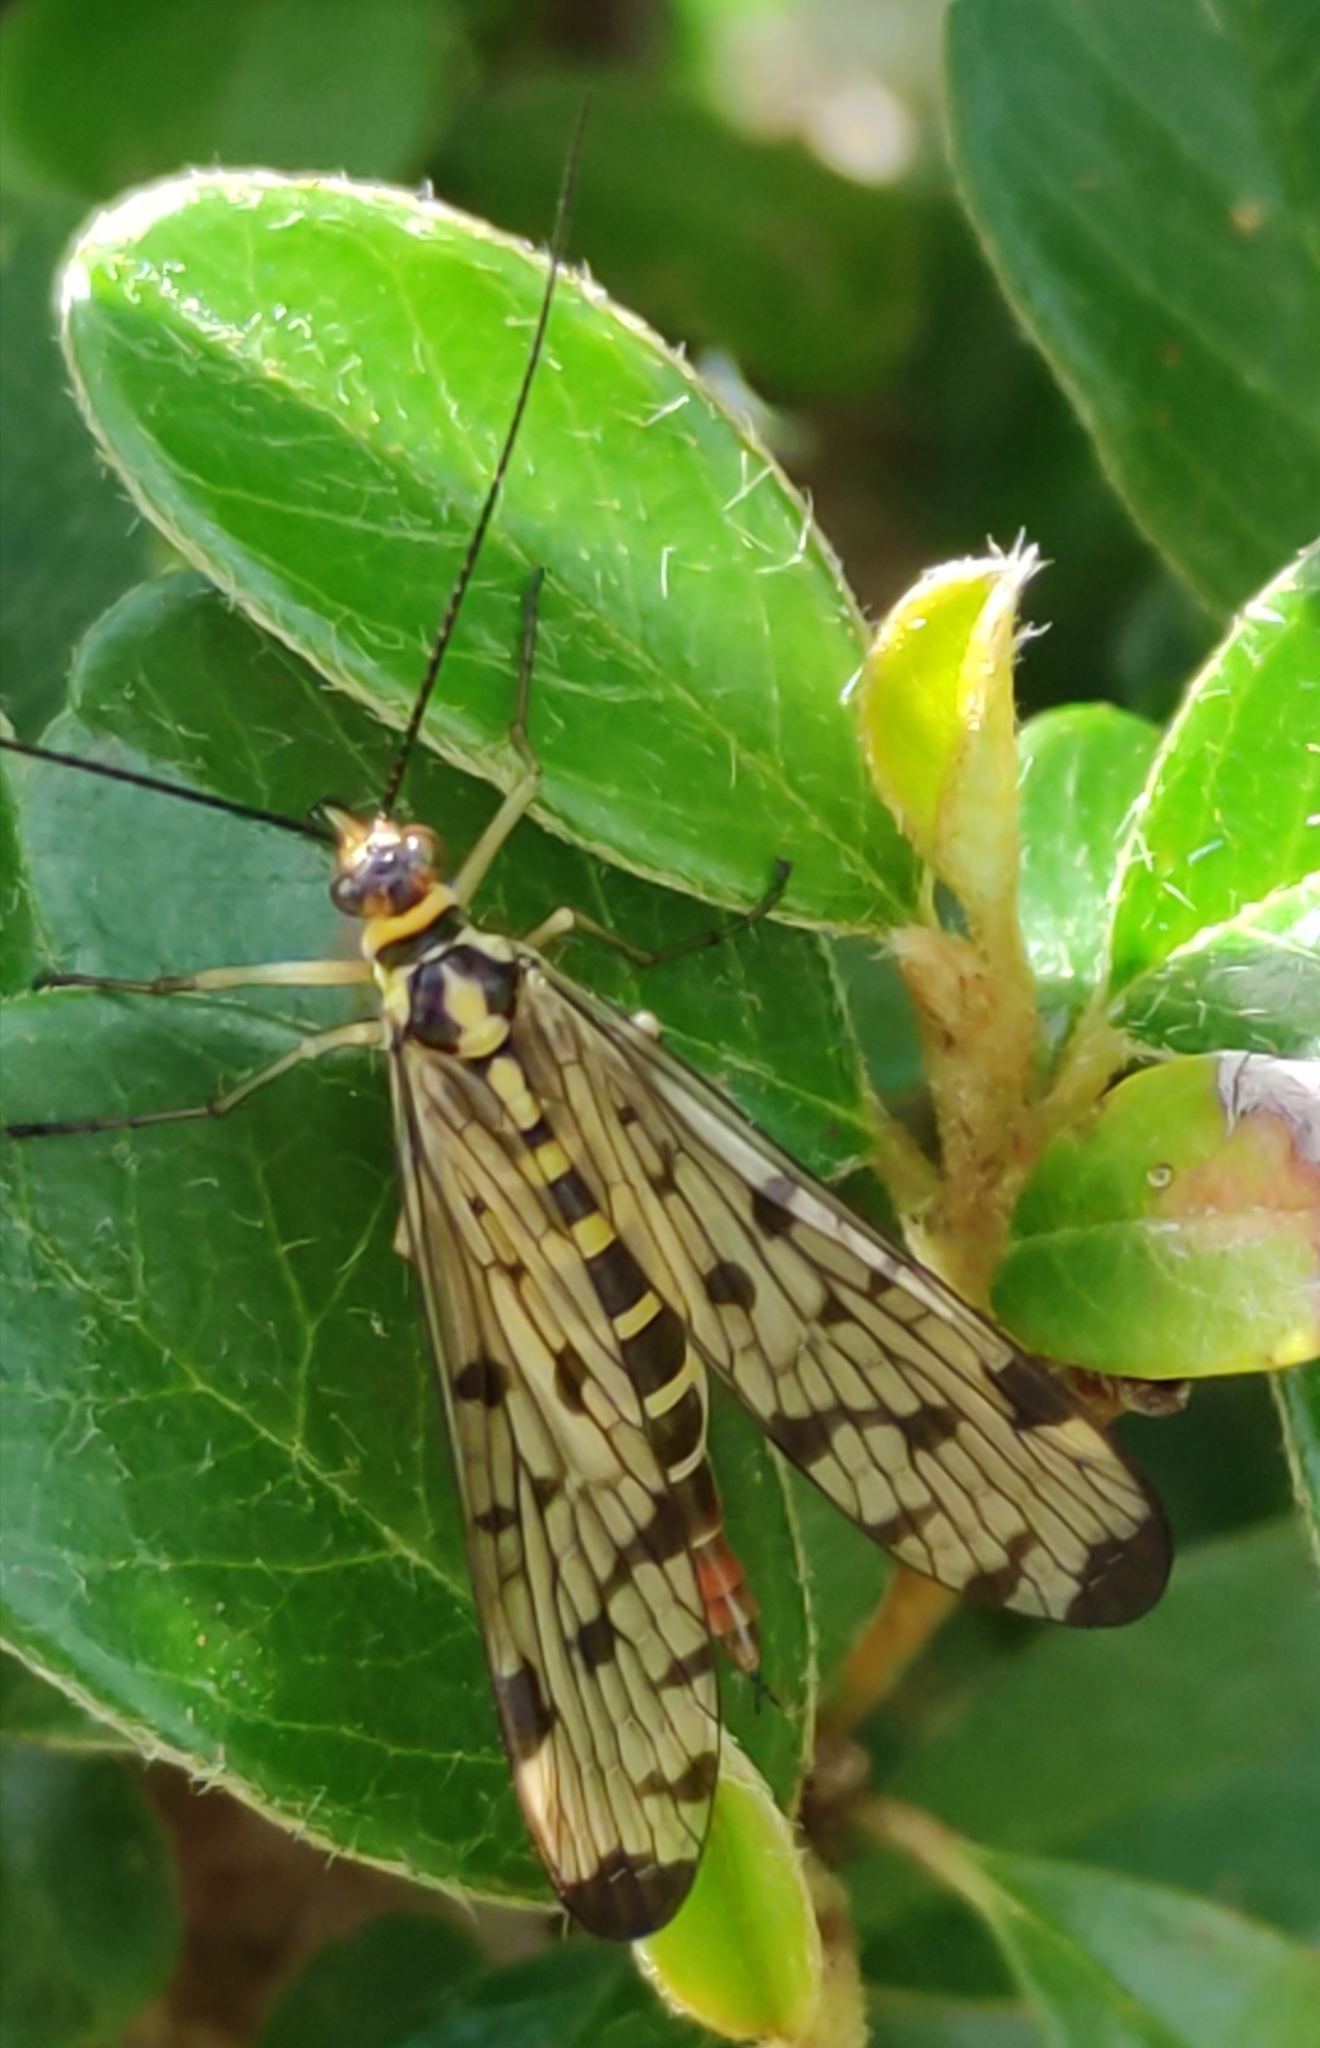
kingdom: Animalia
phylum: Arthropoda
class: Insecta
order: Mecoptera
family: Panorpidae
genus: Panorpa
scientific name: Panorpa germanica
